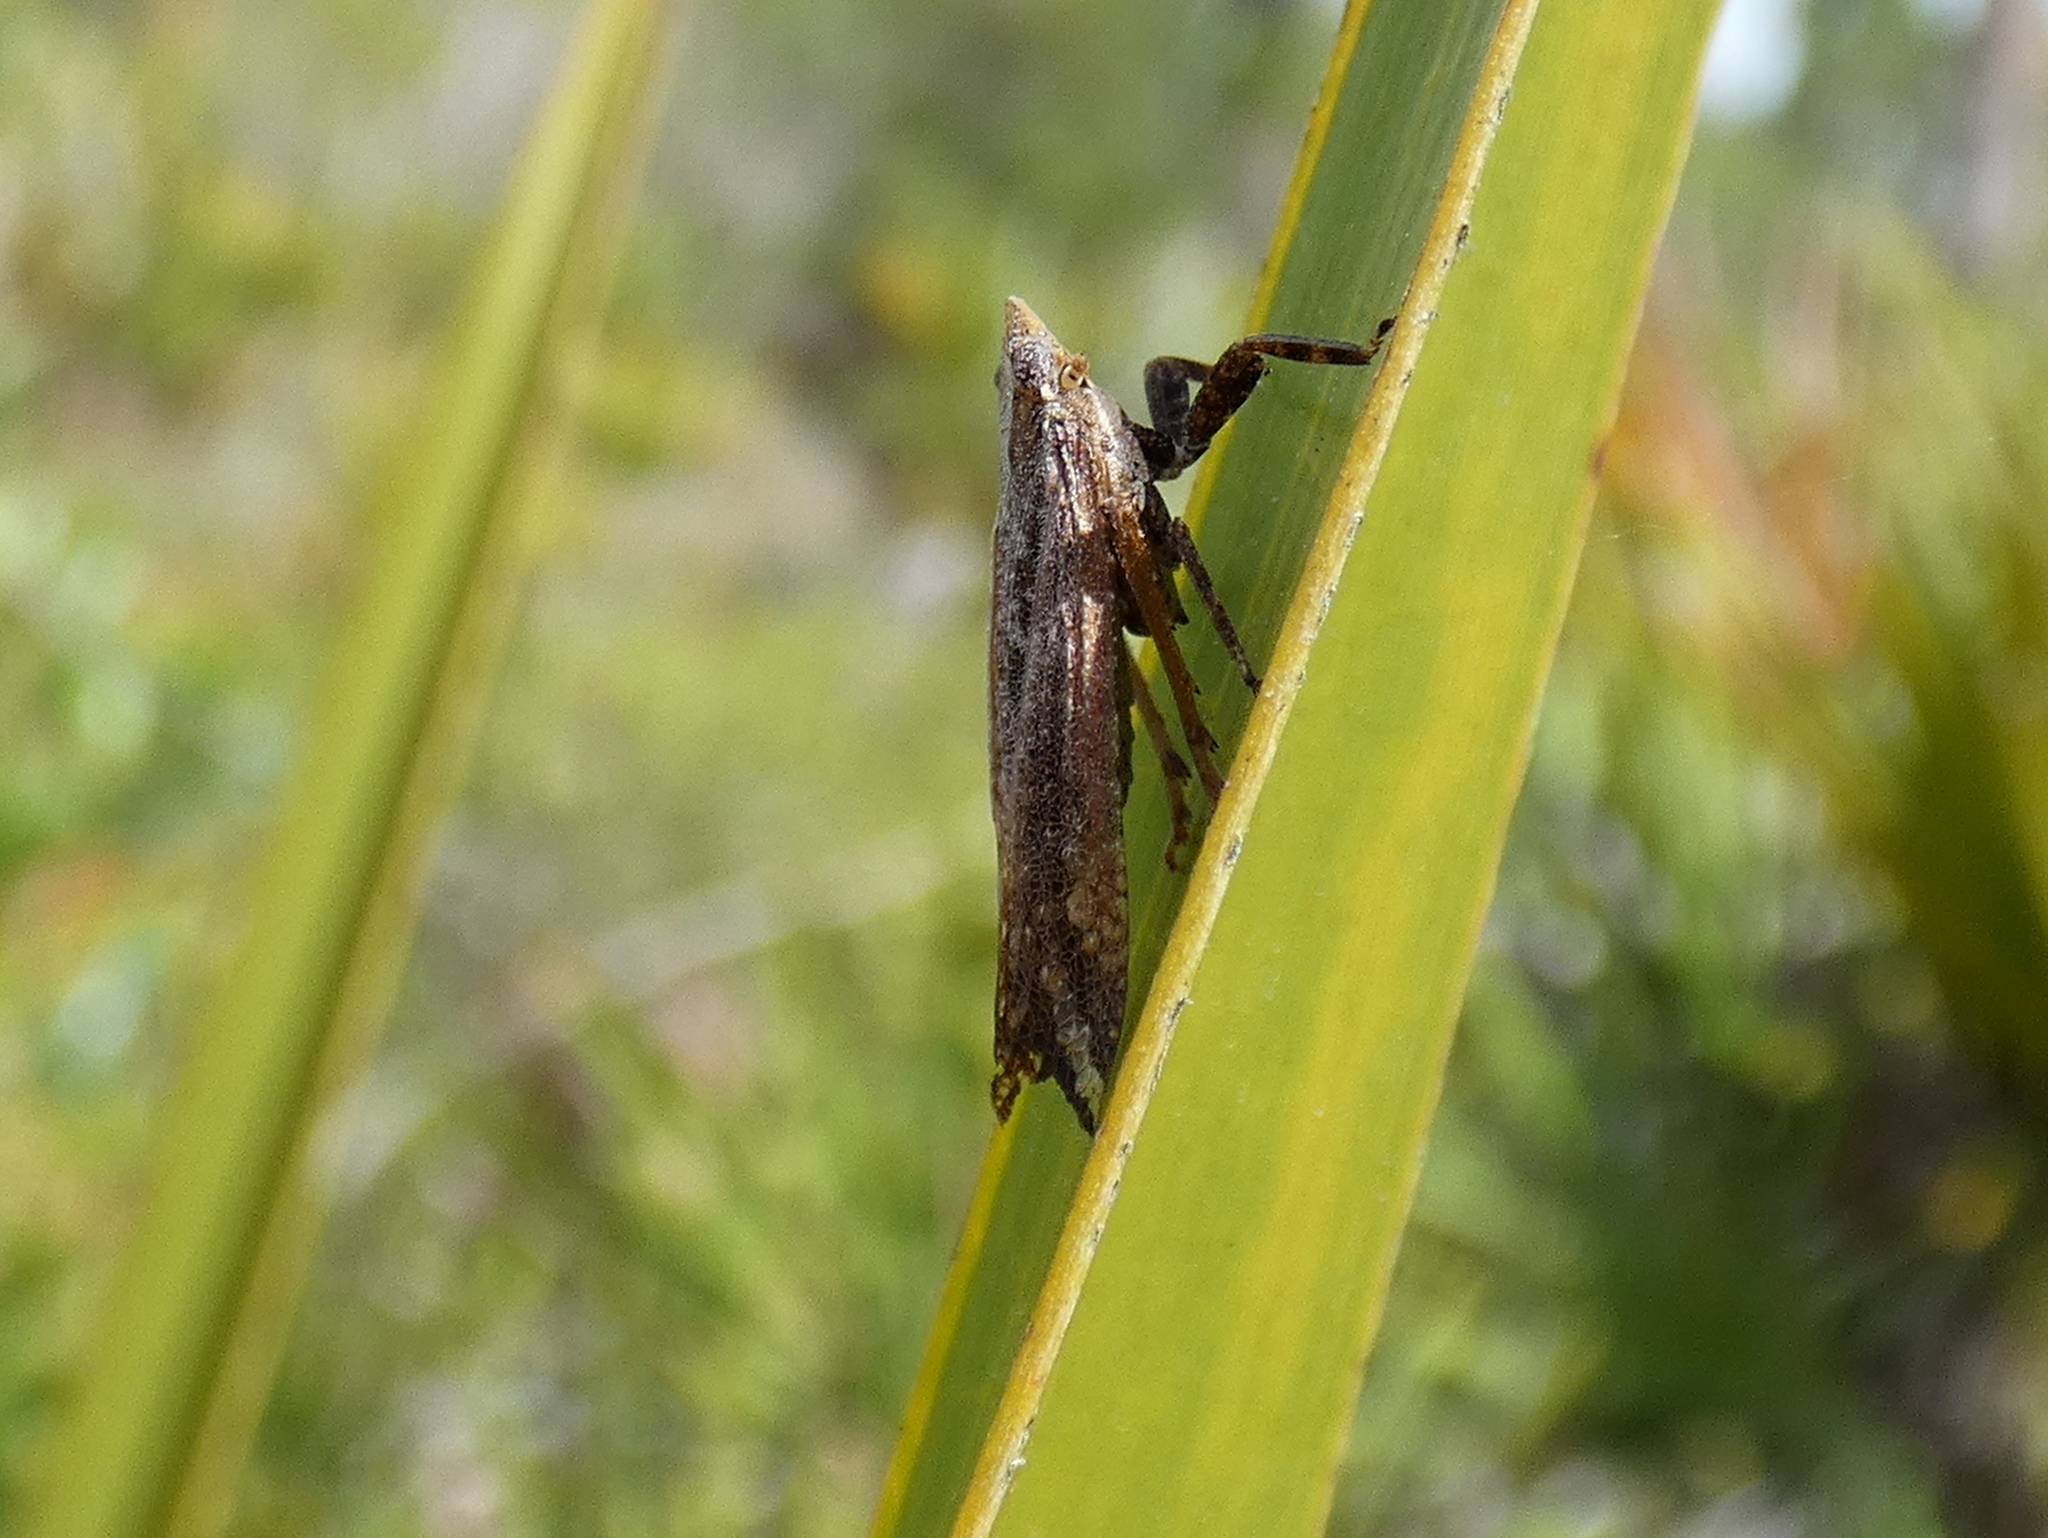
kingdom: Animalia
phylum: Arthropoda
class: Insecta
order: Hemiptera
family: Fulgoridae
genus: Cyrpoptus
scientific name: Cyrpoptus reineckei
